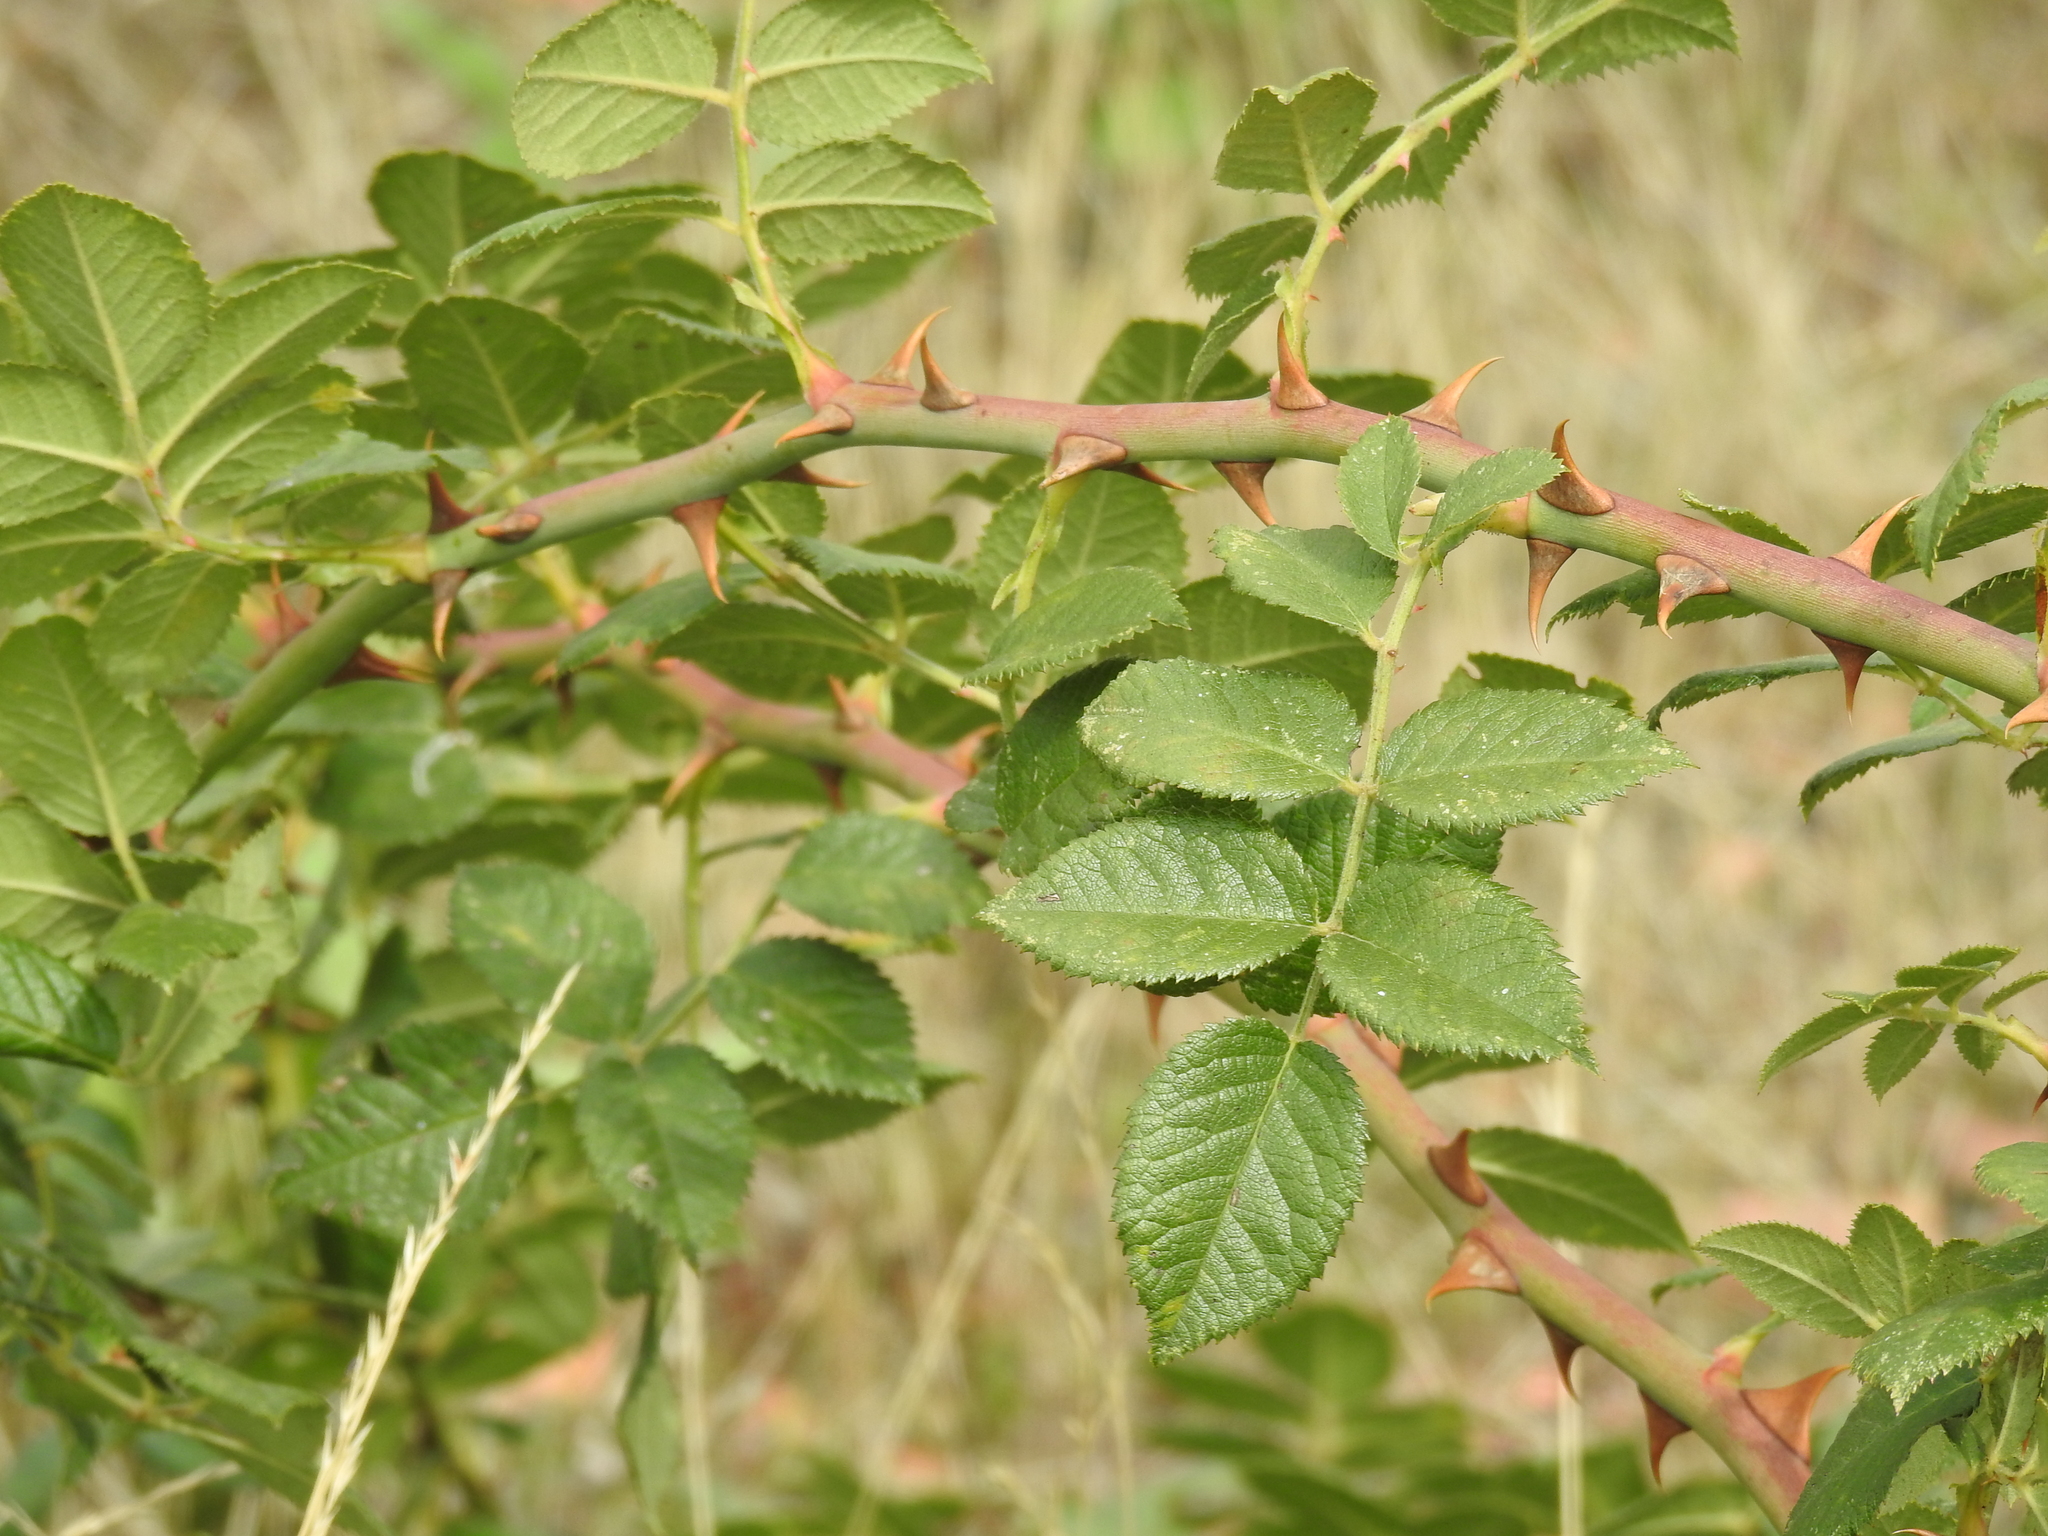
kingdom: Plantae
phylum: Tracheophyta
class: Magnoliopsida
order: Rosales
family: Rosaceae
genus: Rosa
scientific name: Rosa canina
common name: Dog rose
